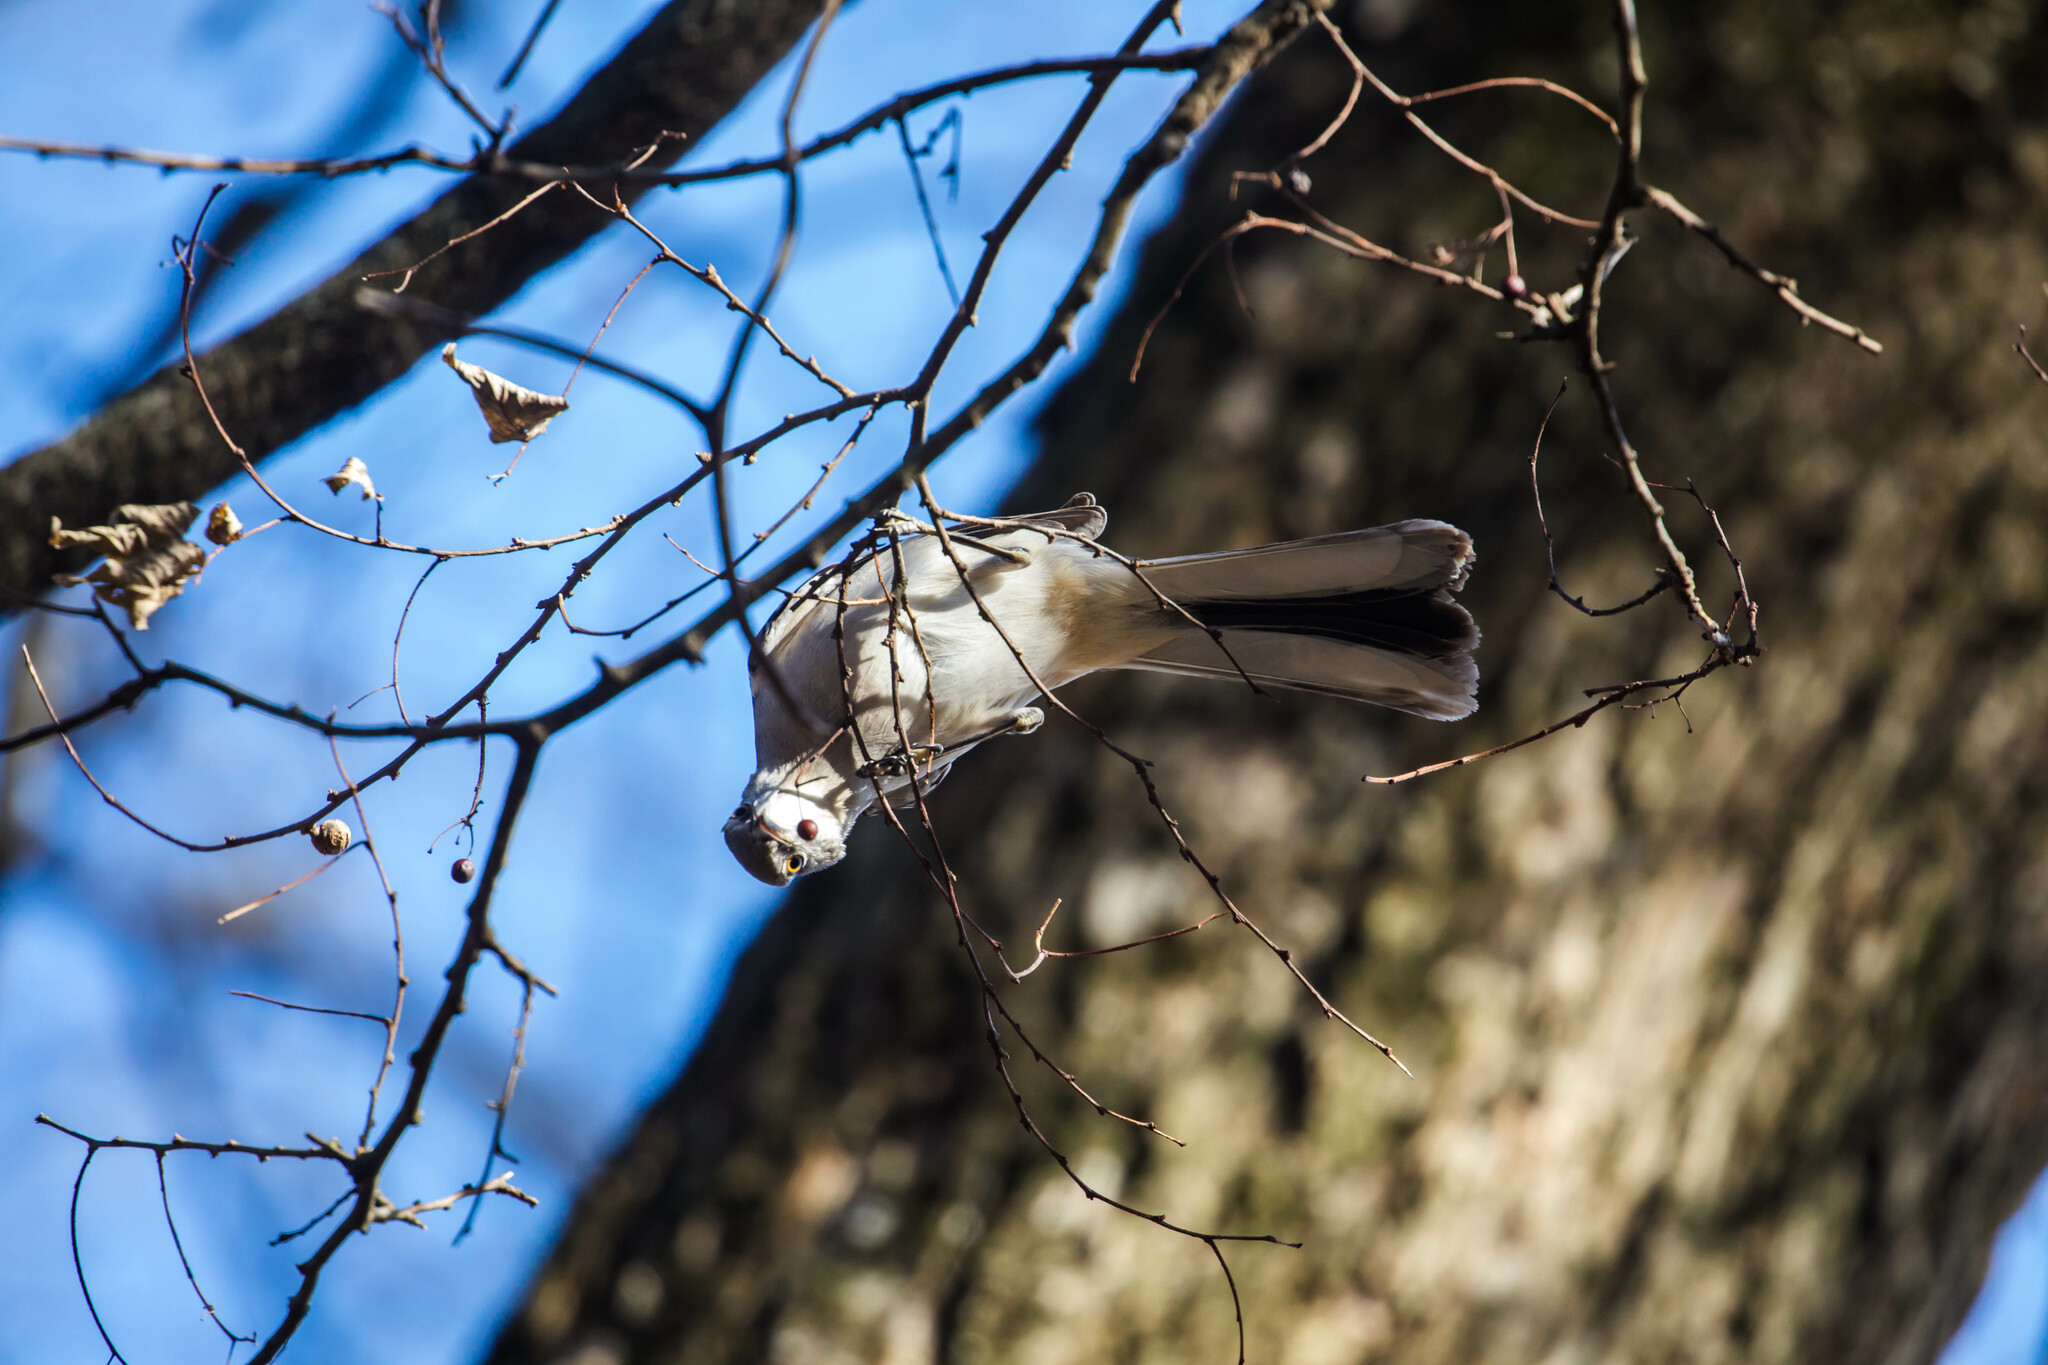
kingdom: Animalia
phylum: Chordata
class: Aves
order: Passeriformes
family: Mimidae
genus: Mimus
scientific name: Mimus polyglottos
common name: Northern mockingbird
